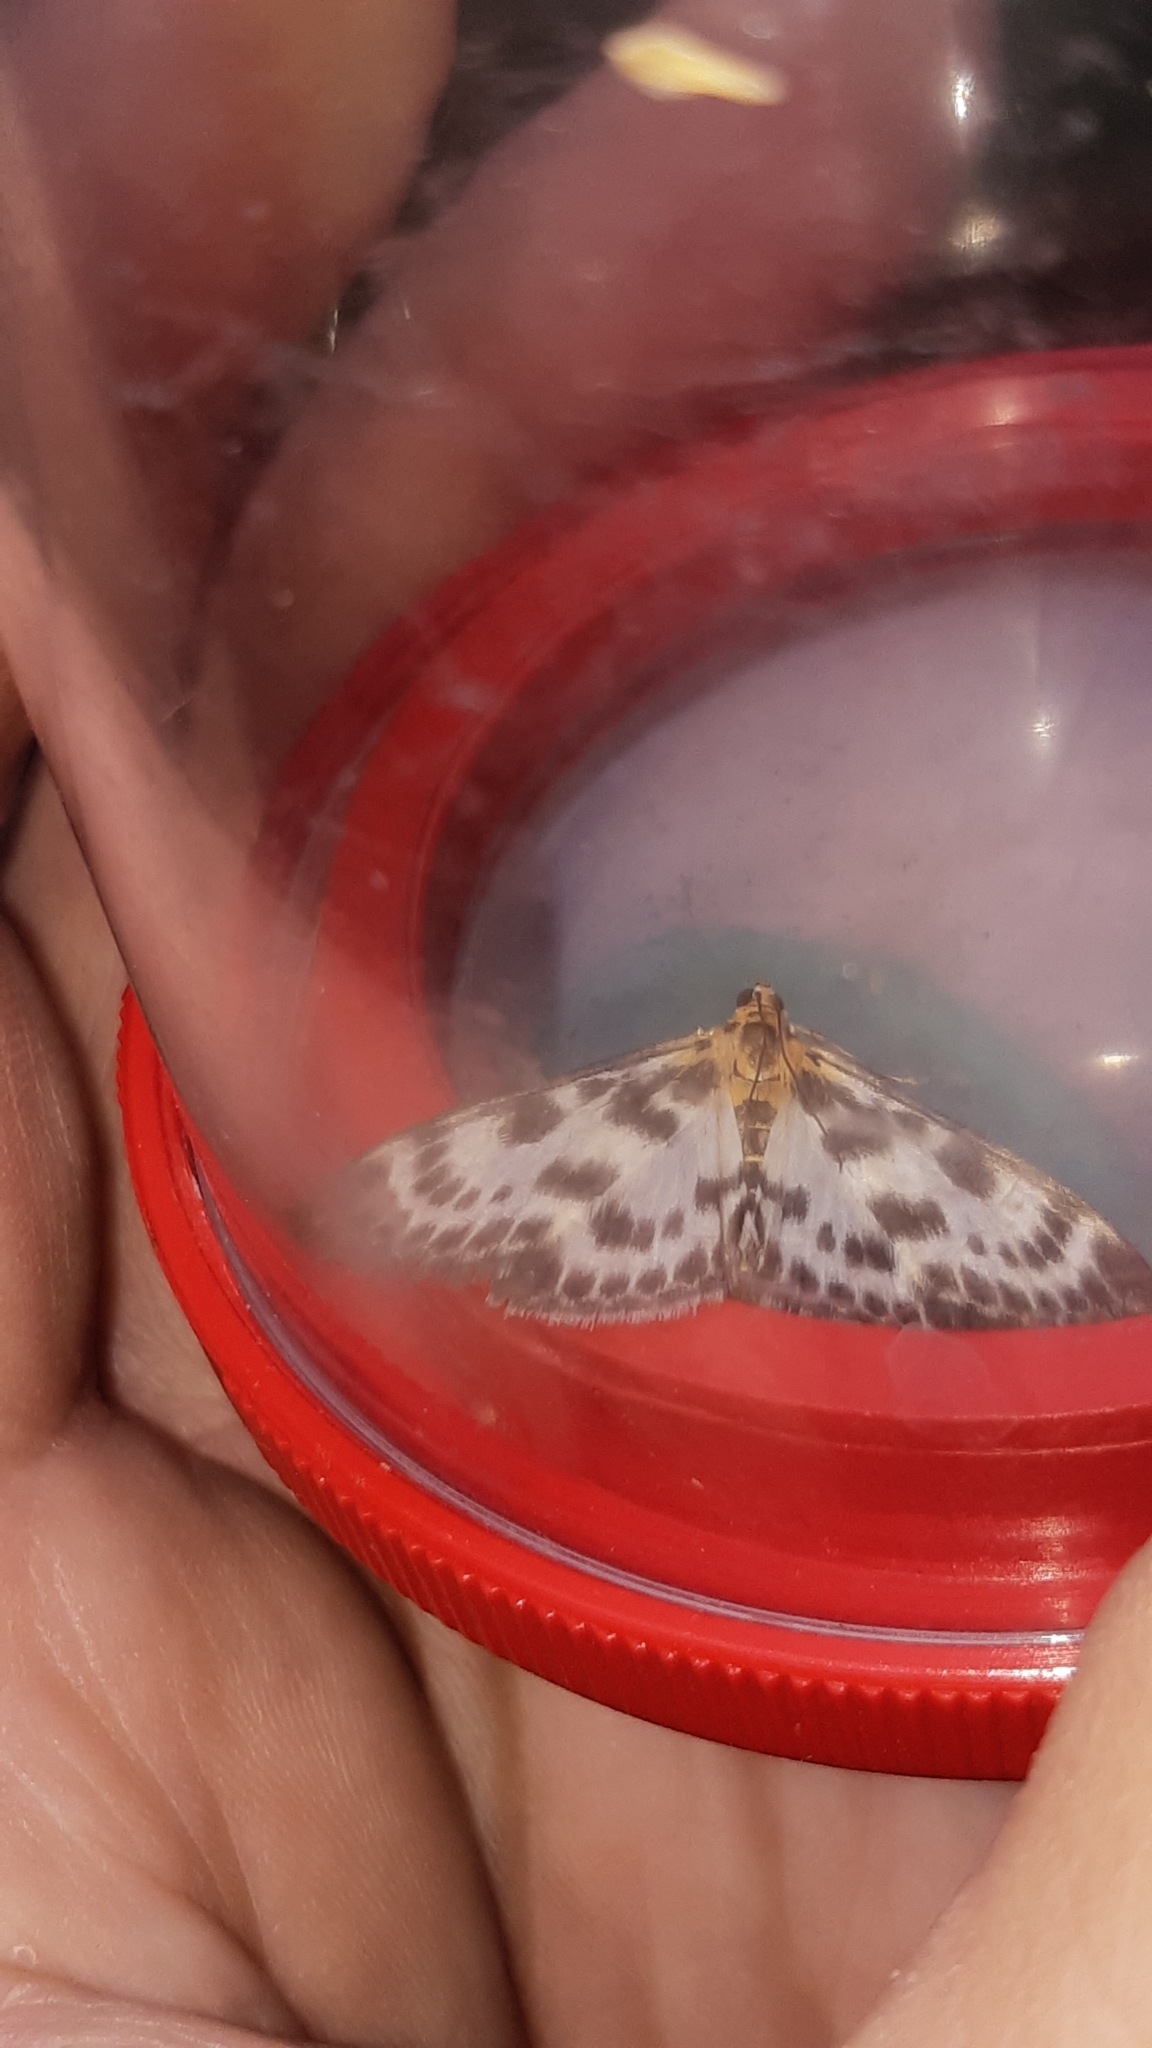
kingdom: Animalia
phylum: Arthropoda
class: Insecta
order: Lepidoptera
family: Crambidae
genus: Anania
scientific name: Anania hortulata
